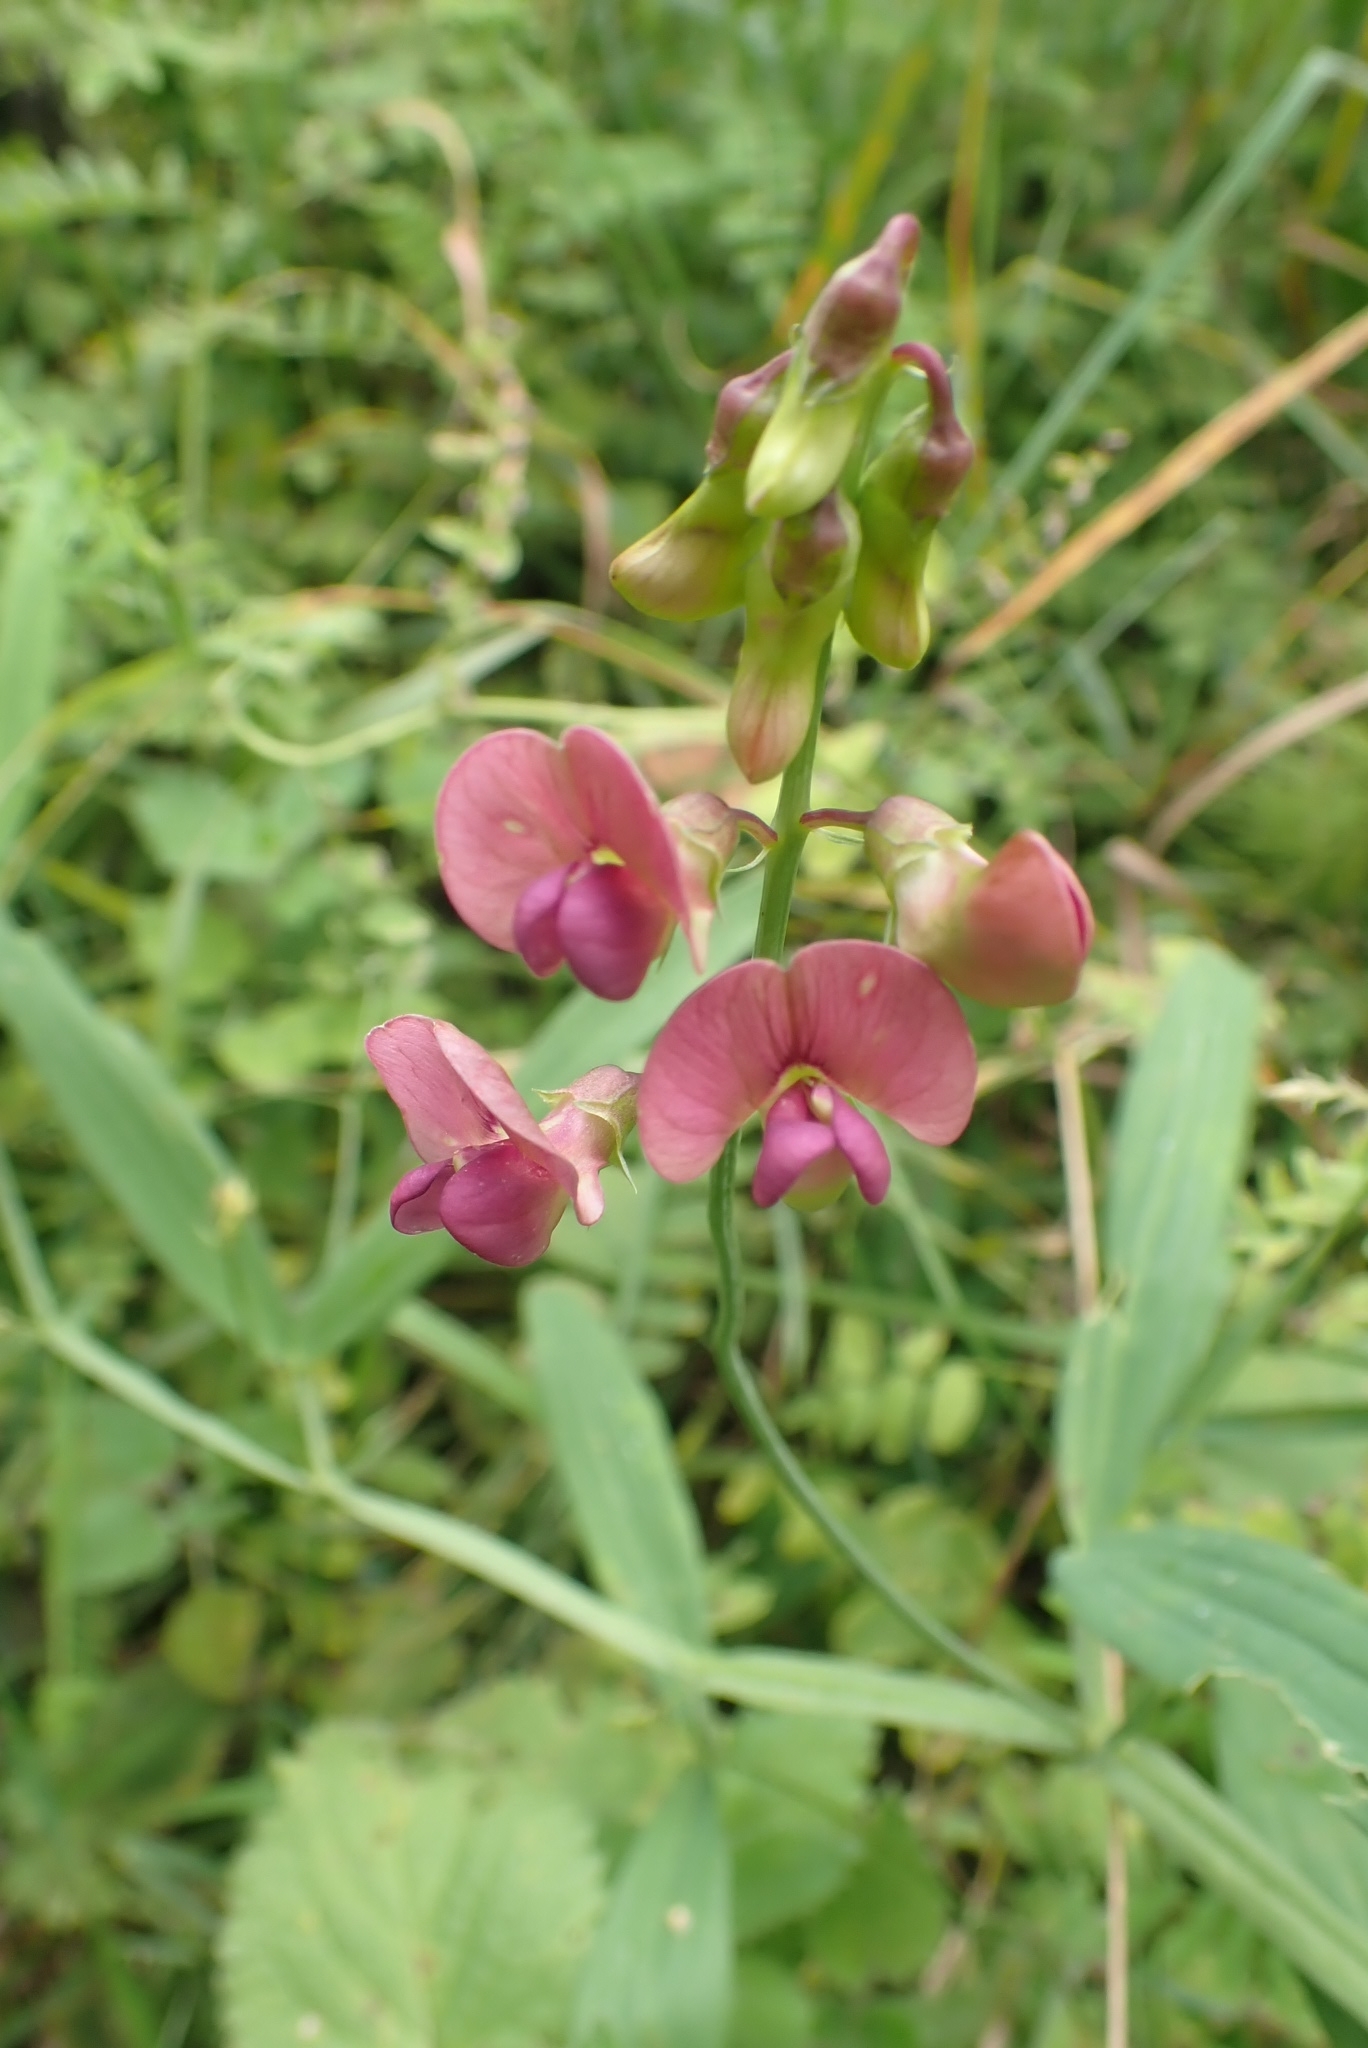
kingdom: Plantae
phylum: Tracheophyta
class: Magnoliopsida
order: Fabales
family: Fabaceae
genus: Lathyrus
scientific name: Lathyrus sylvestris
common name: Flat pea
